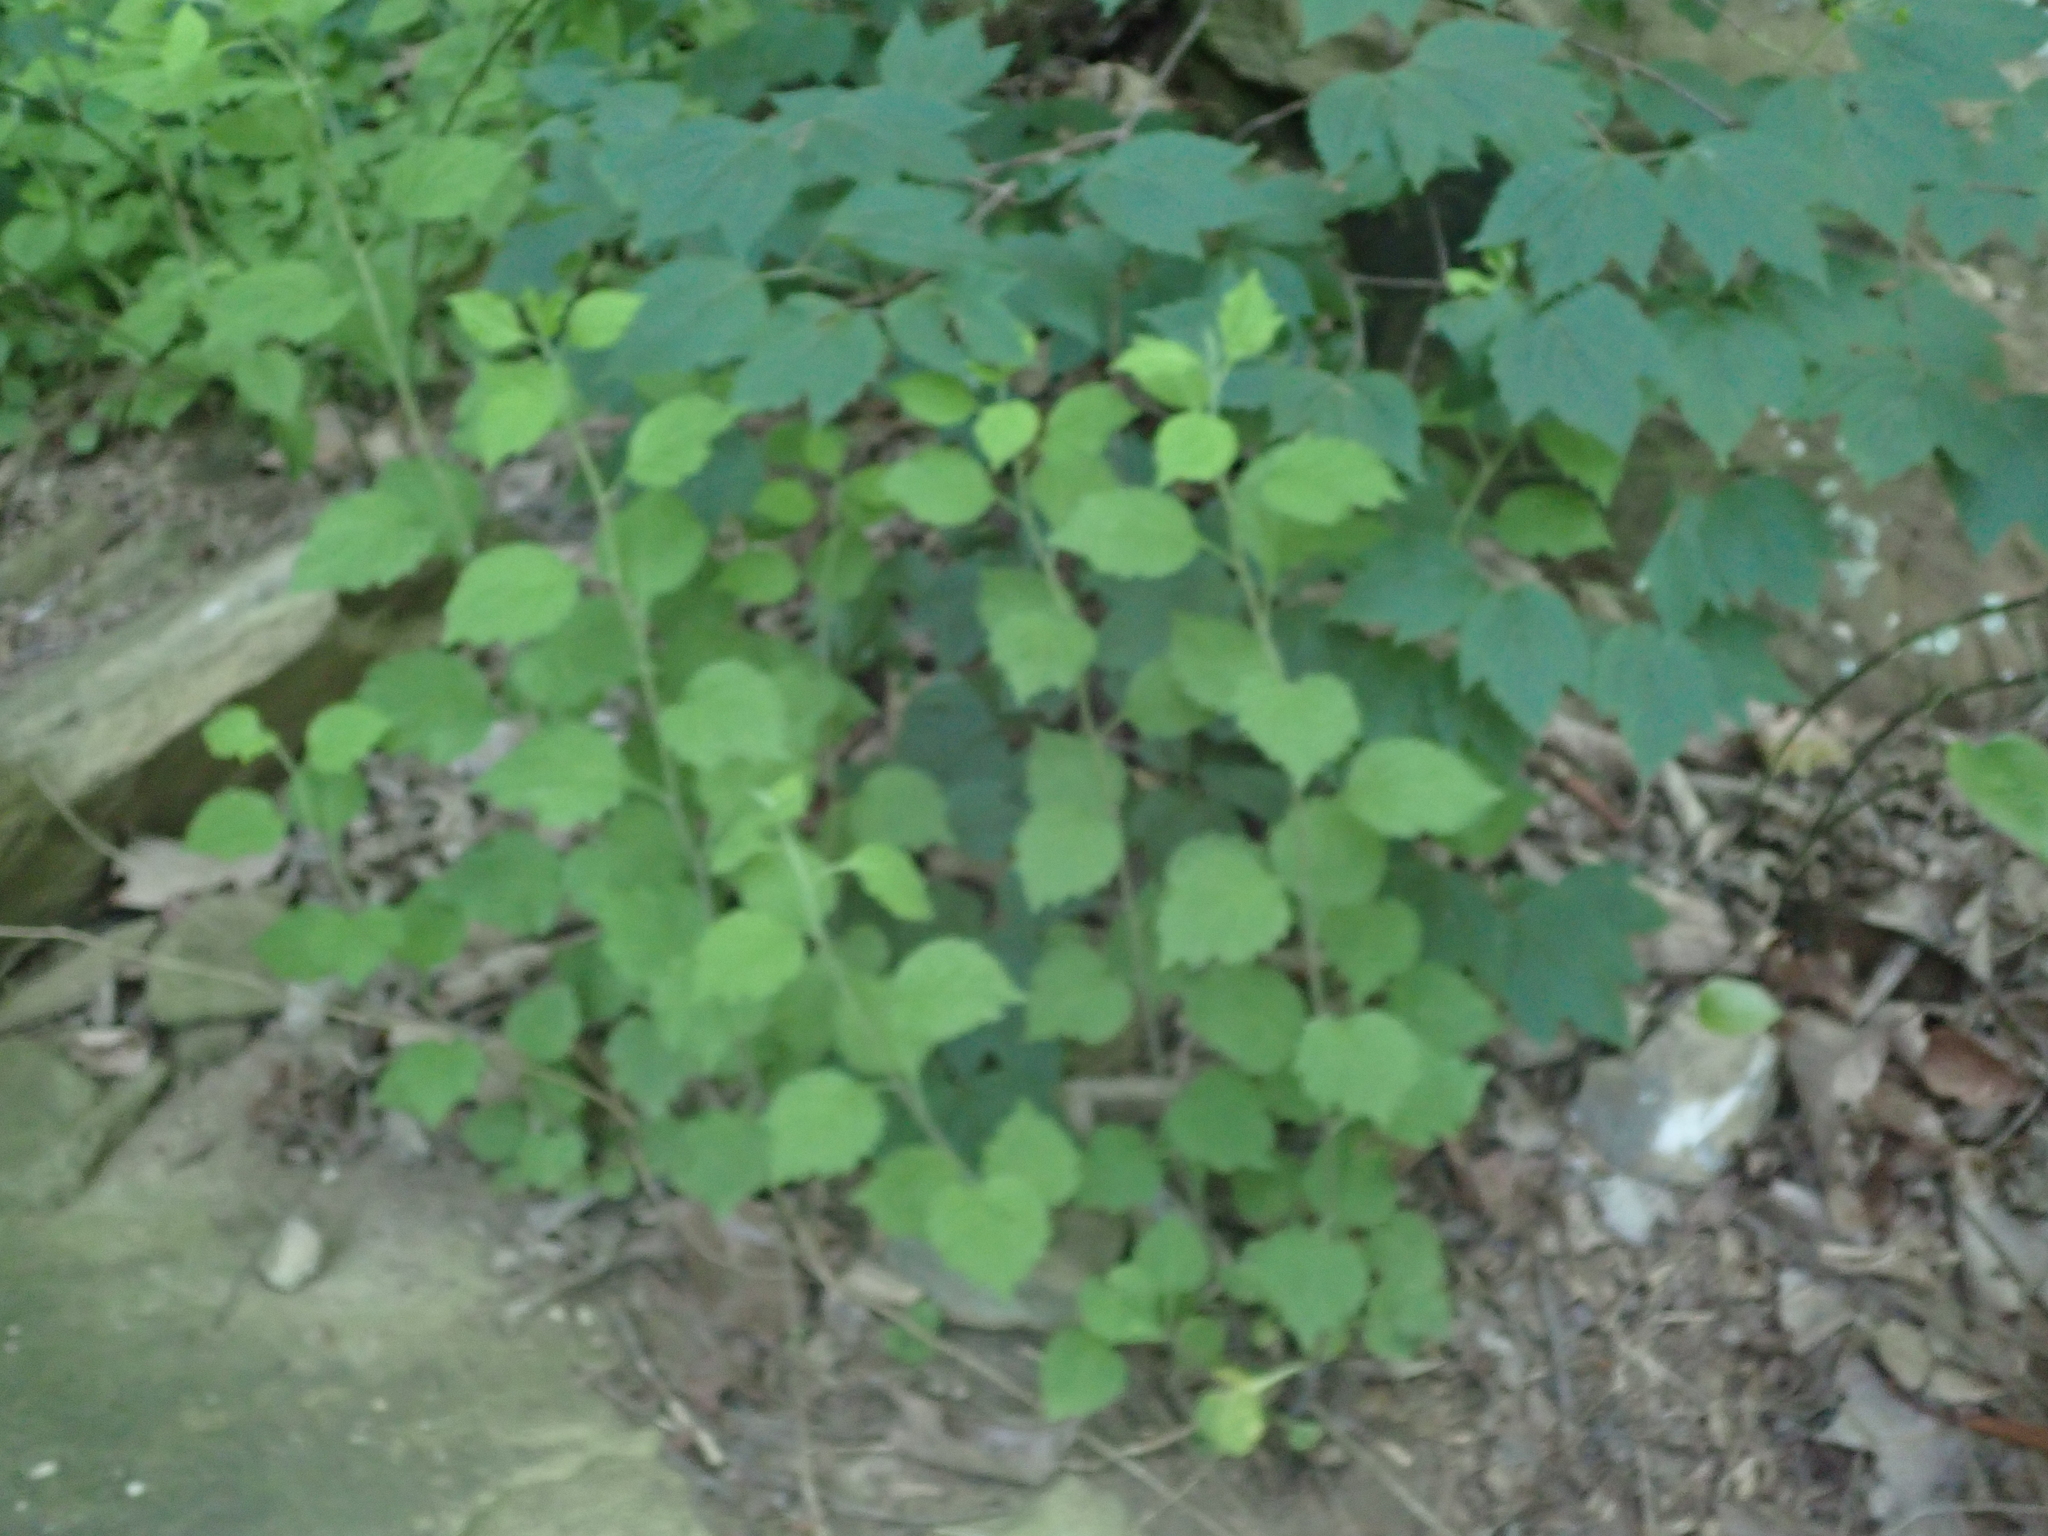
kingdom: Plantae
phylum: Tracheophyta
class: Magnoliopsida
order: Asterales
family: Asteraceae
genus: Solidago
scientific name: Solidago albopilosa
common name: White-hair goldenrod
